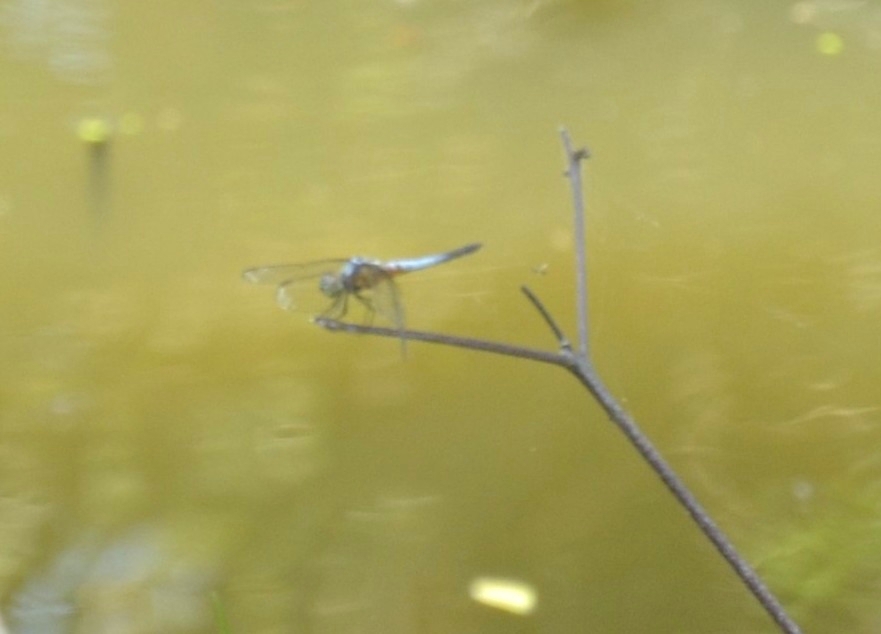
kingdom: Animalia
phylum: Arthropoda
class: Insecta
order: Odonata
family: Libellulidae
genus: Brachydiplax
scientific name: Brachydiplax chalybea
